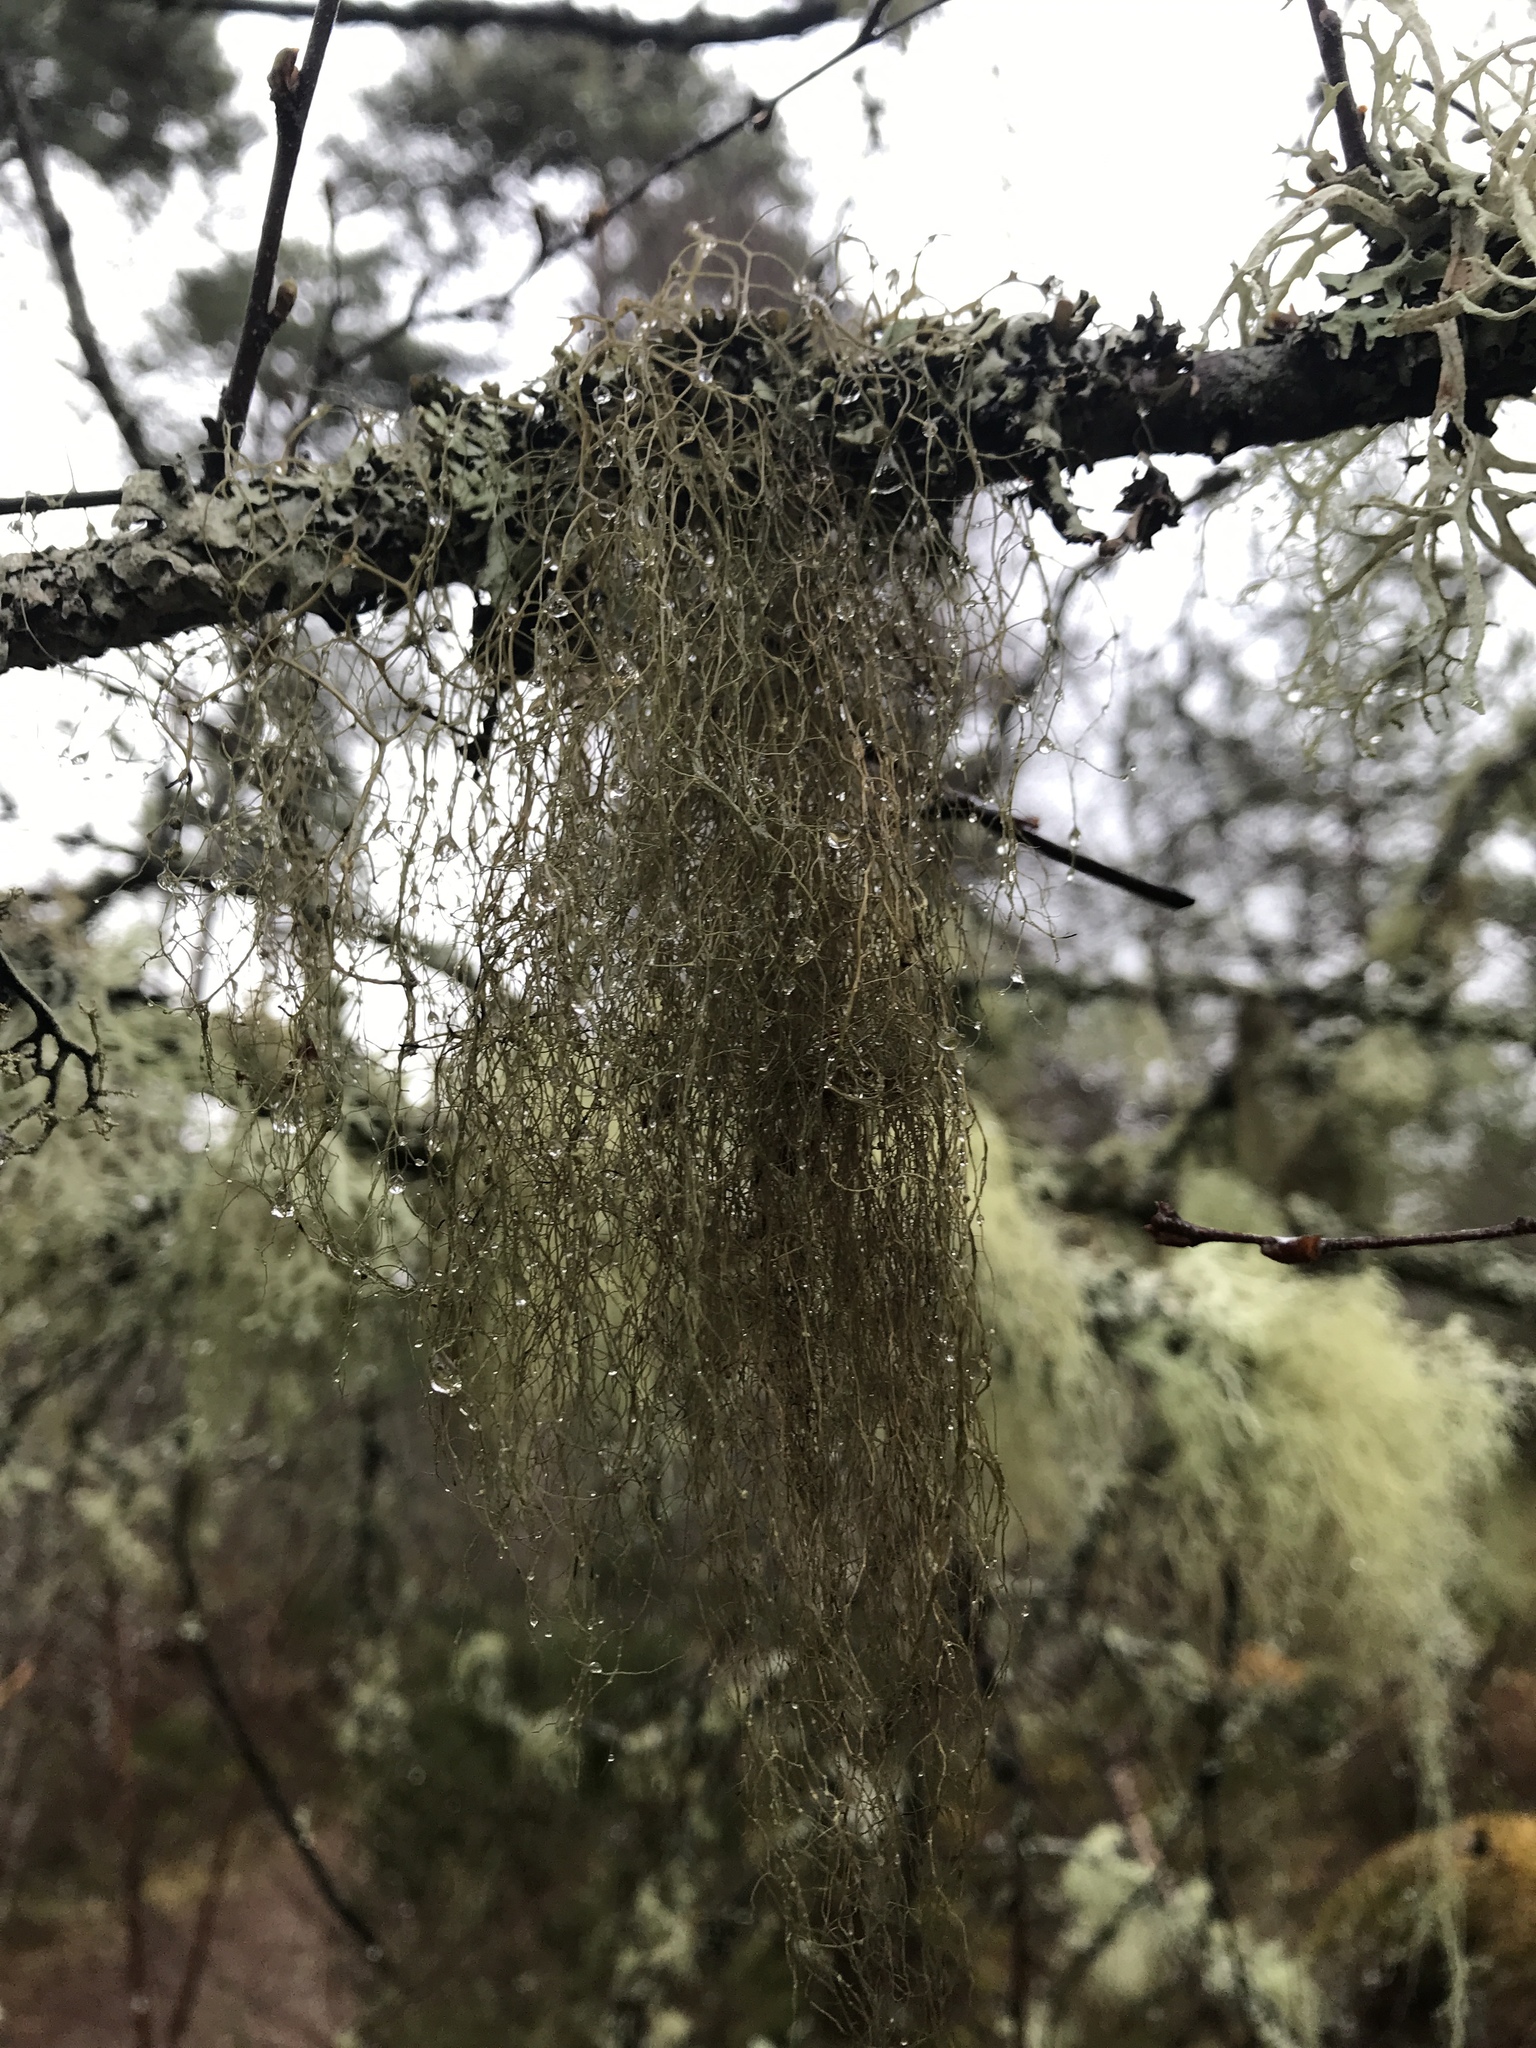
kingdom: Fungi
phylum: Ascomycota
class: Lecanoromycetes
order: Lecanorales
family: Parmeliaceae
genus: Bryoria
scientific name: Bryoria fuscescens
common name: Pale-footed horsehair lichen
